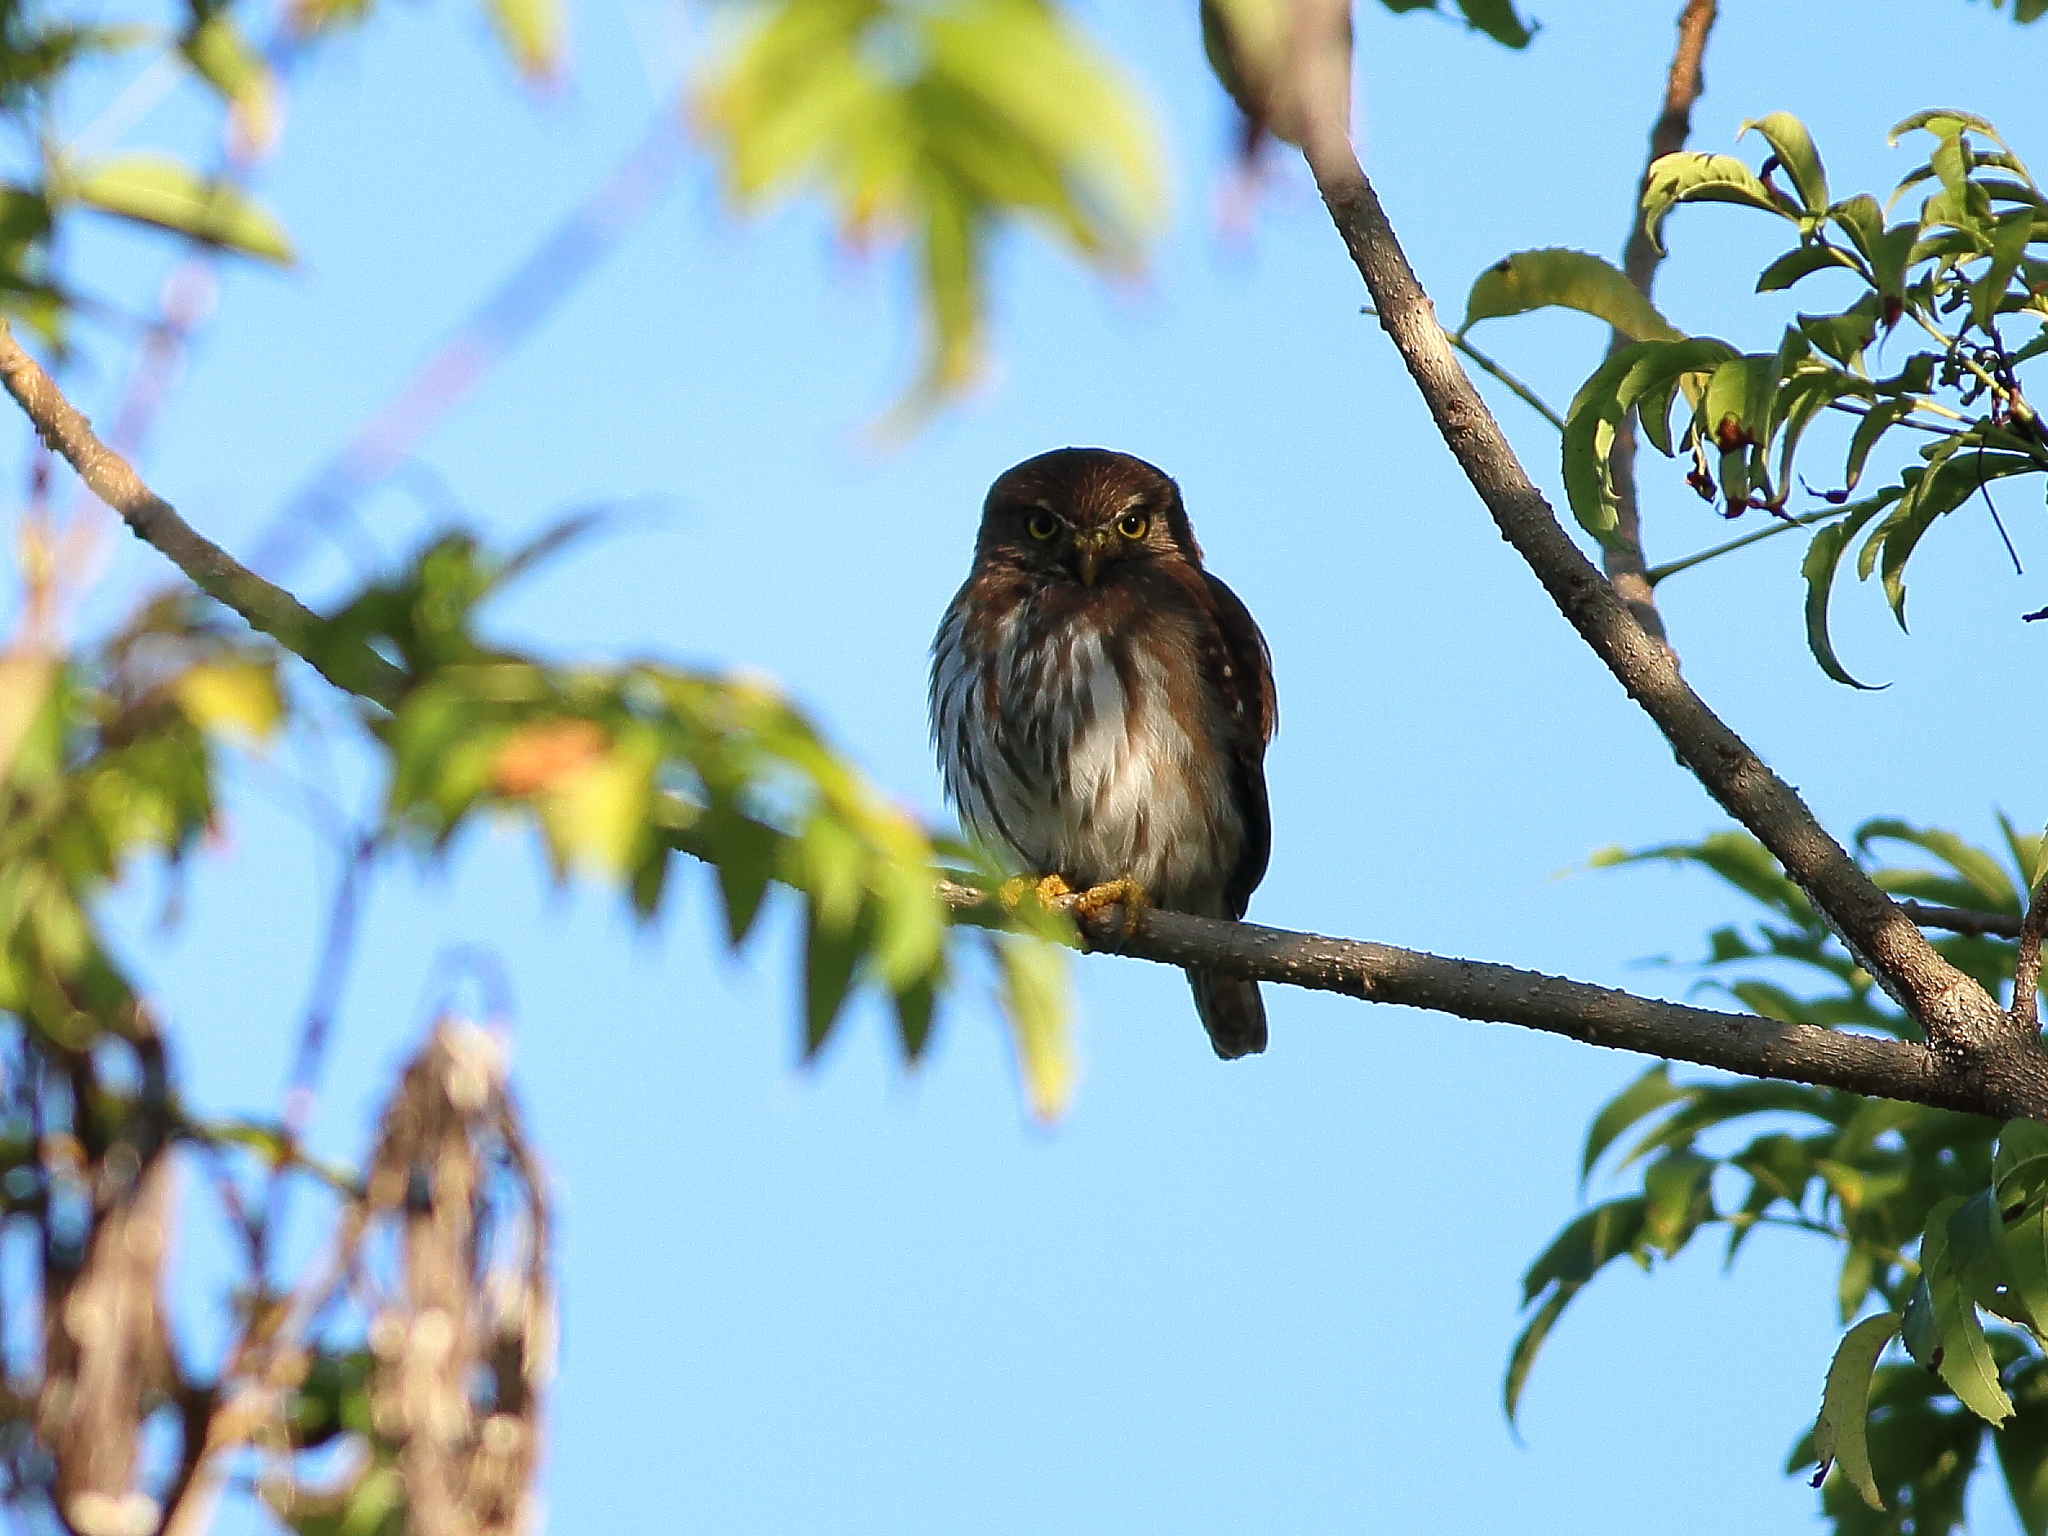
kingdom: Animalia
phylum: Chordata
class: Aves
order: Strigiformes
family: Strigidae
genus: Glaucidium
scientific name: Glaucidium brasilianum
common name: Ferruginous pygmy-owl
